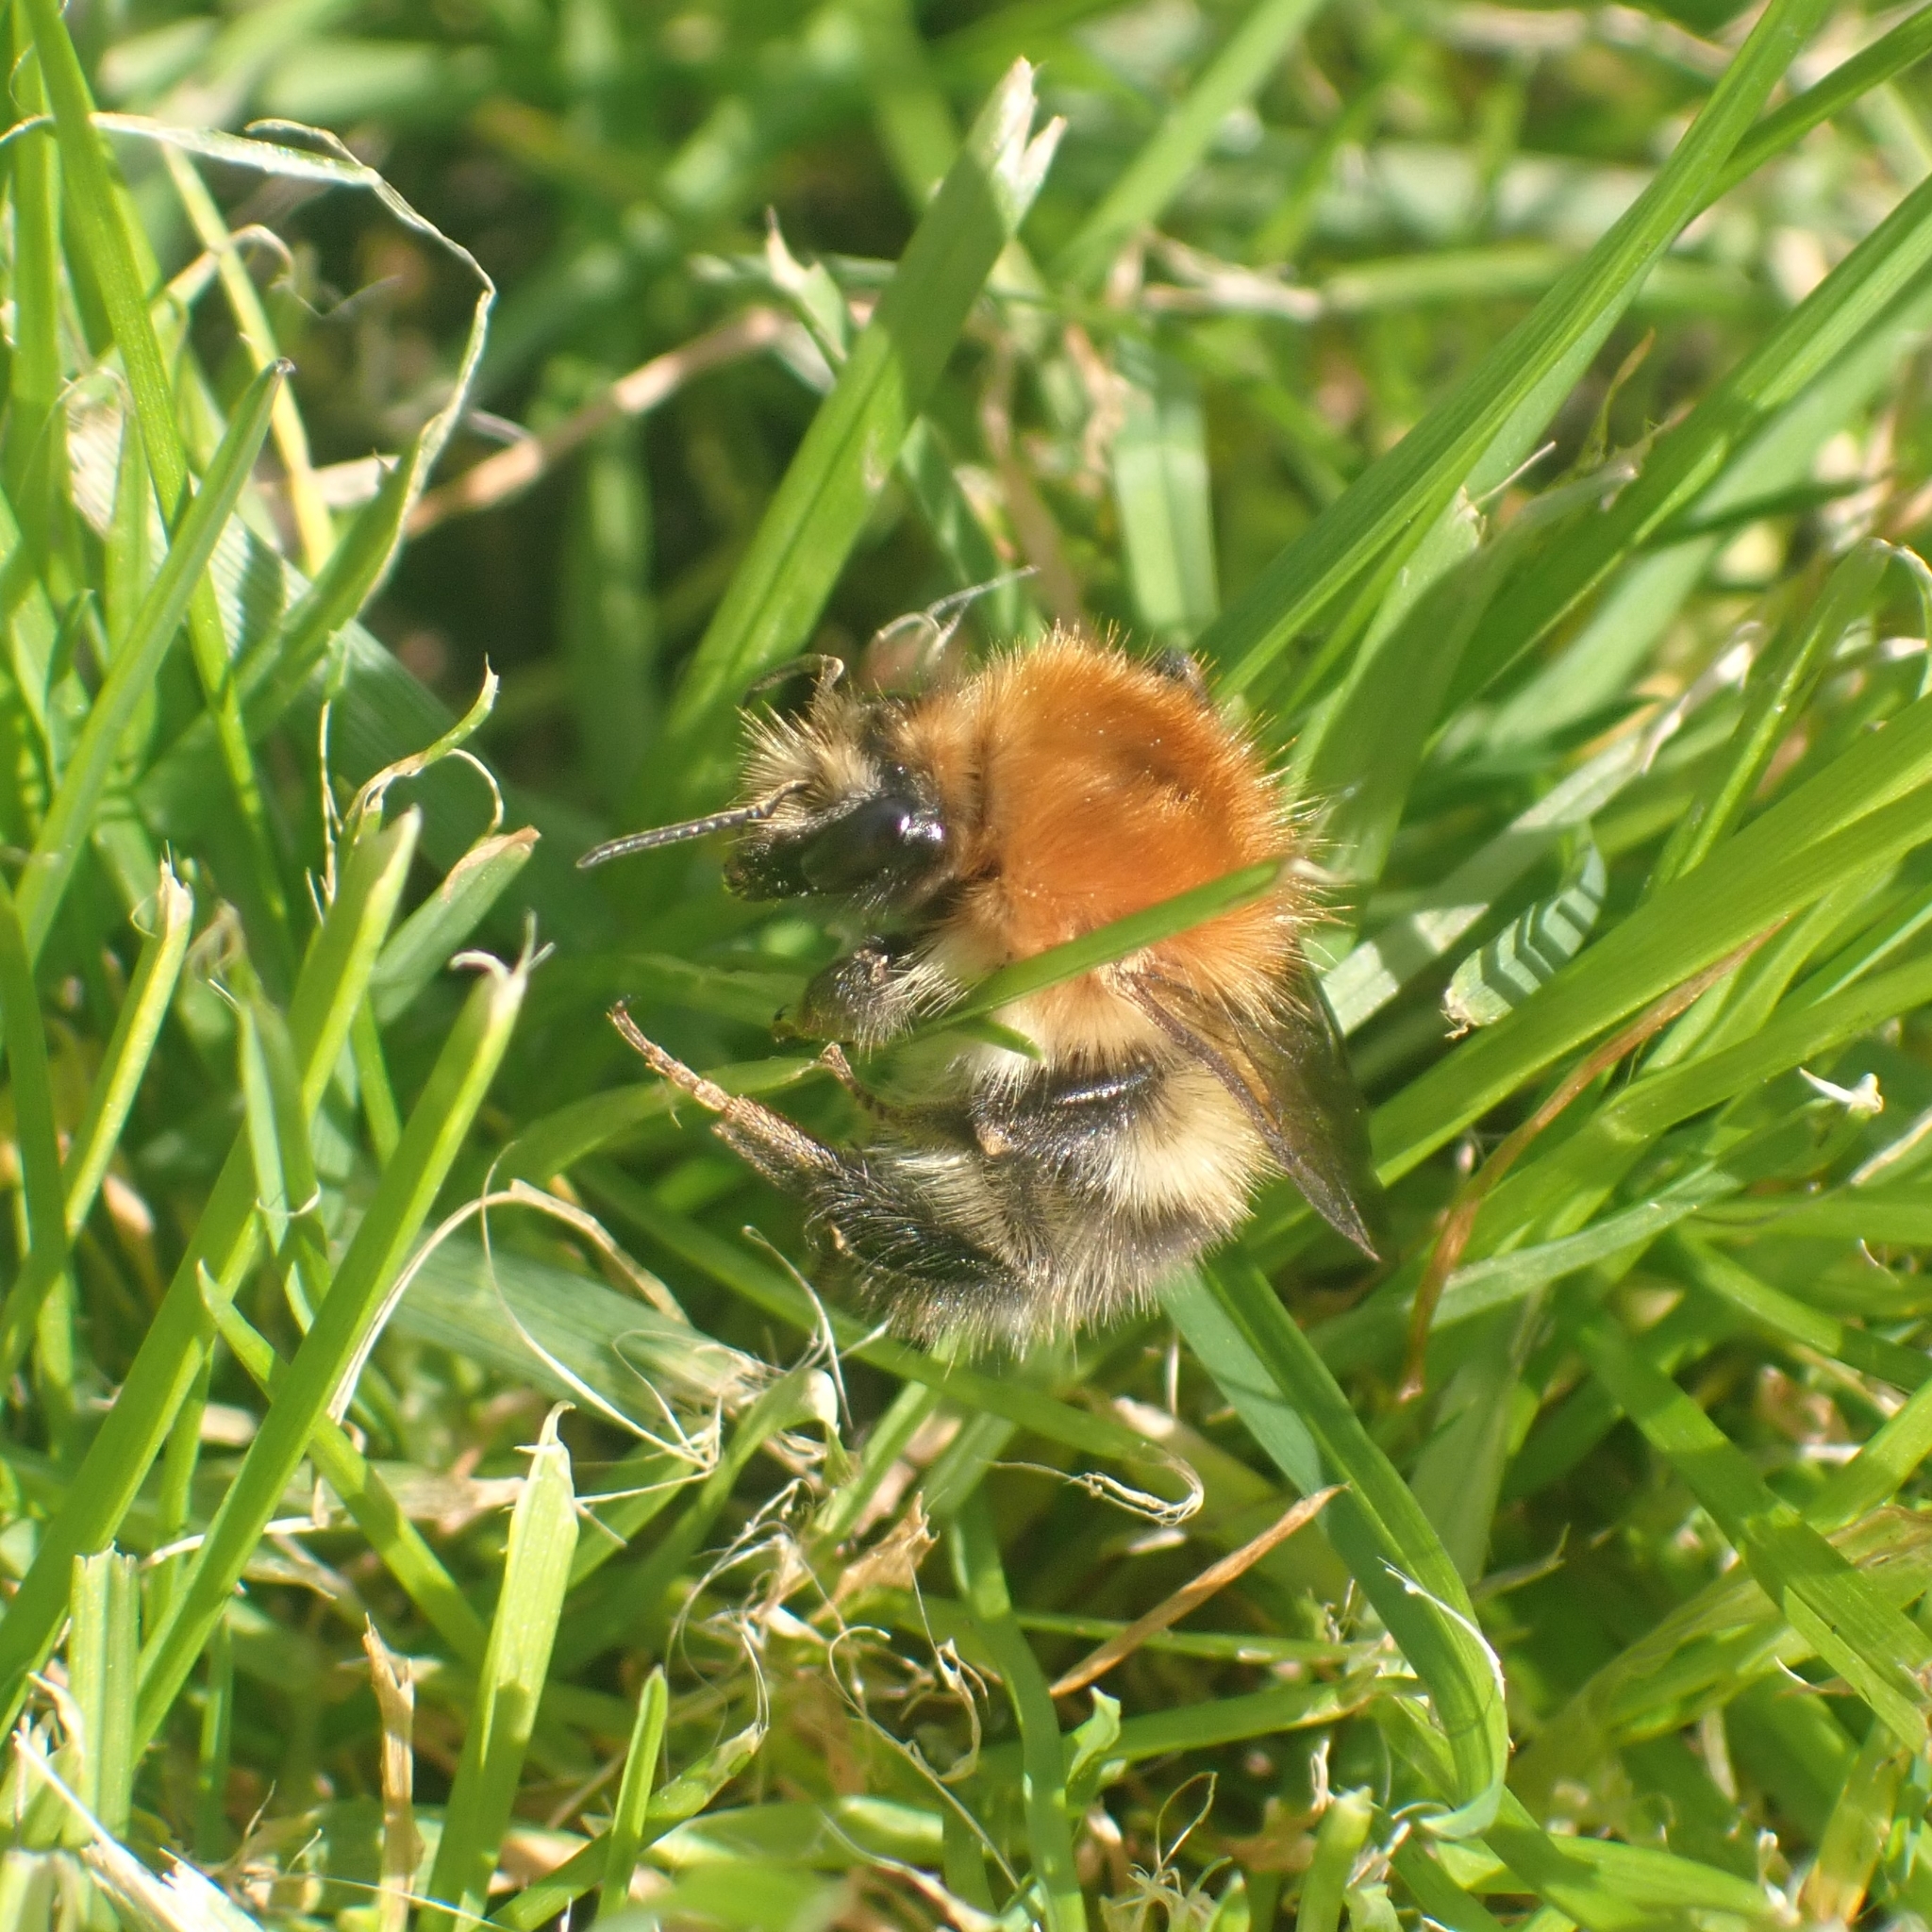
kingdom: Animalia
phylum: Arthropoda
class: Insecta
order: Hymenoptera
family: Apidae
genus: Bombus
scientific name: Bombus pascuorum
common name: Common carder bee
